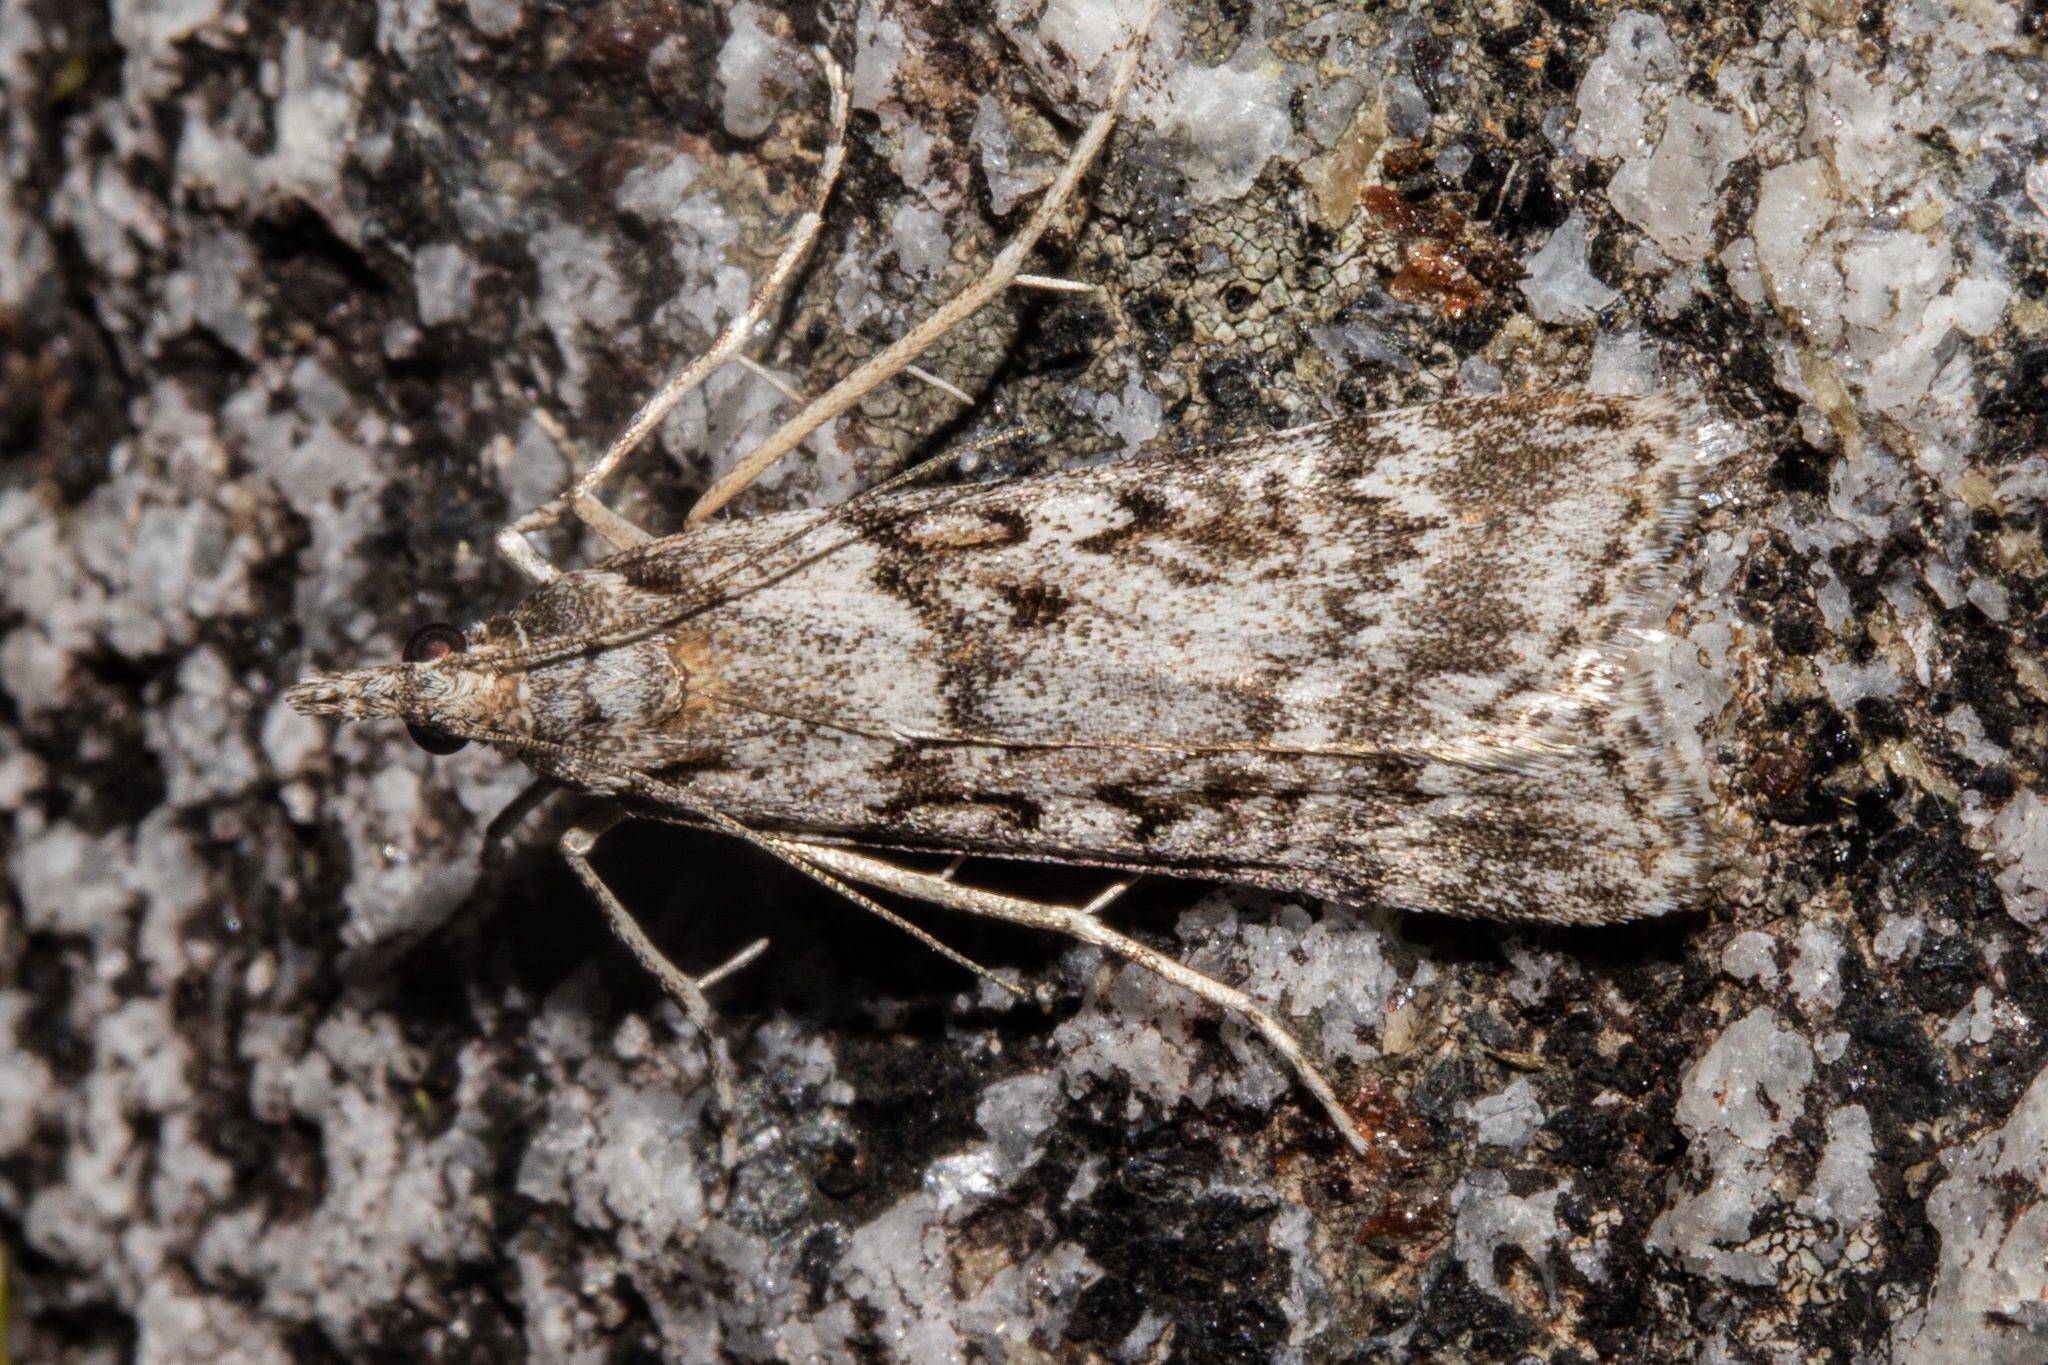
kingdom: Animalia
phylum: Arthropoda
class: Insecta
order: Lepidoptera
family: Crambidae
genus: Scoparia
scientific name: Scoparia petrina
